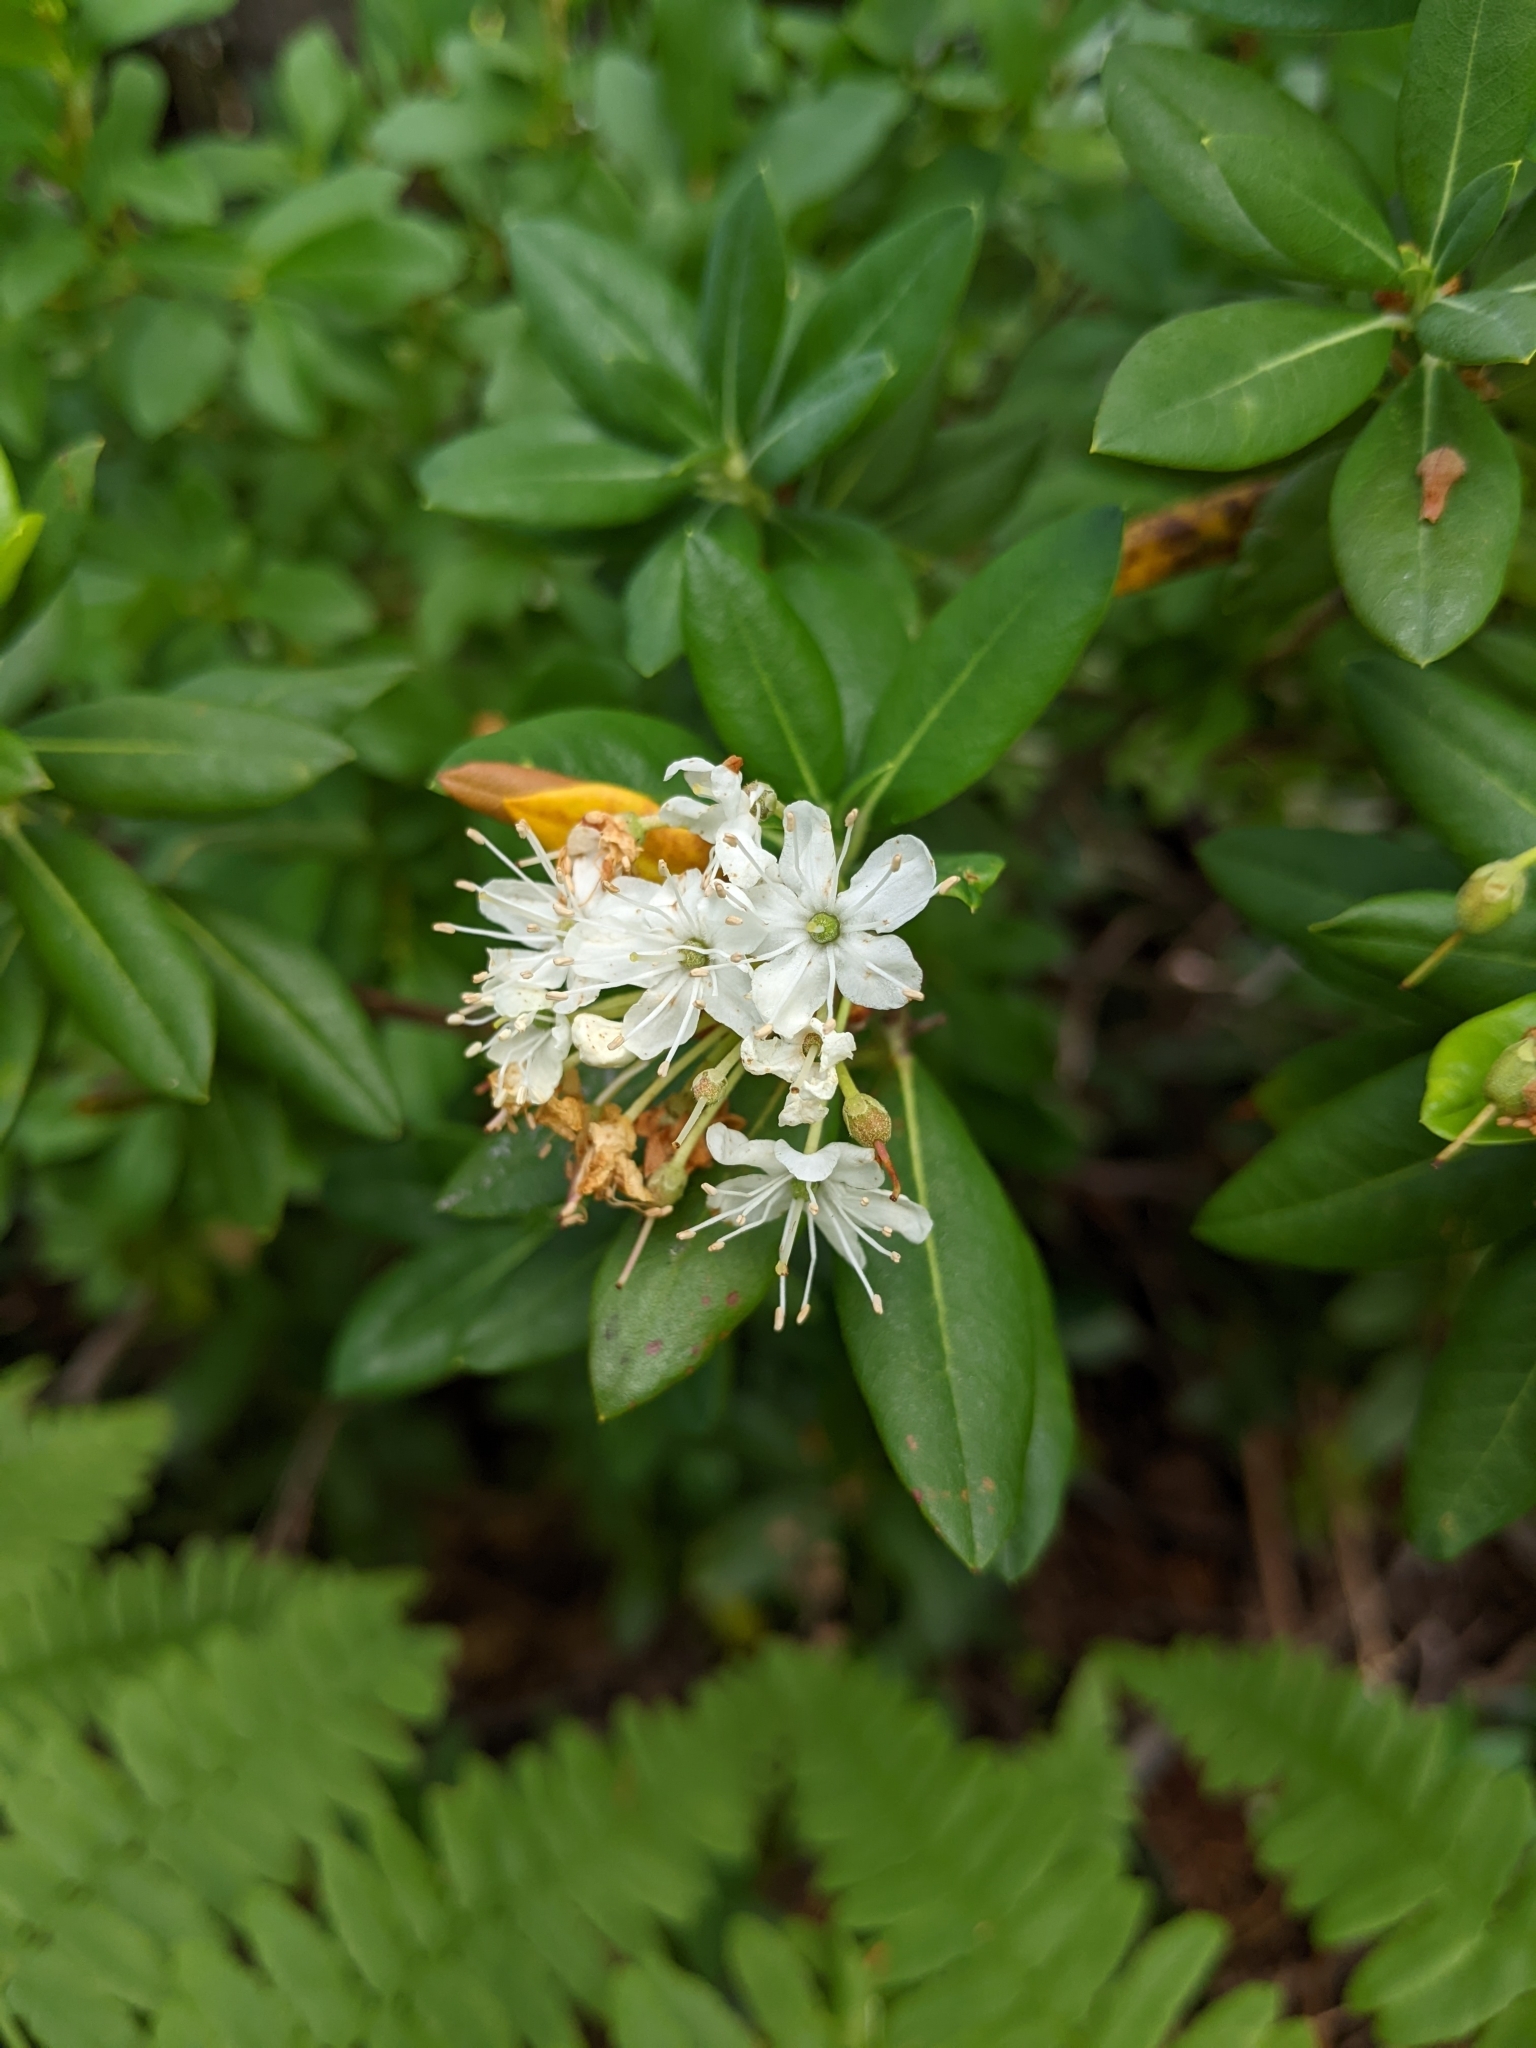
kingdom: Plantae
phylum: Tracheophyta
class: Magnoliopsida
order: Ericales
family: Ericaceae
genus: Rhododendron
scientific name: Rhododendron columbianum
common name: Western labrador tea
